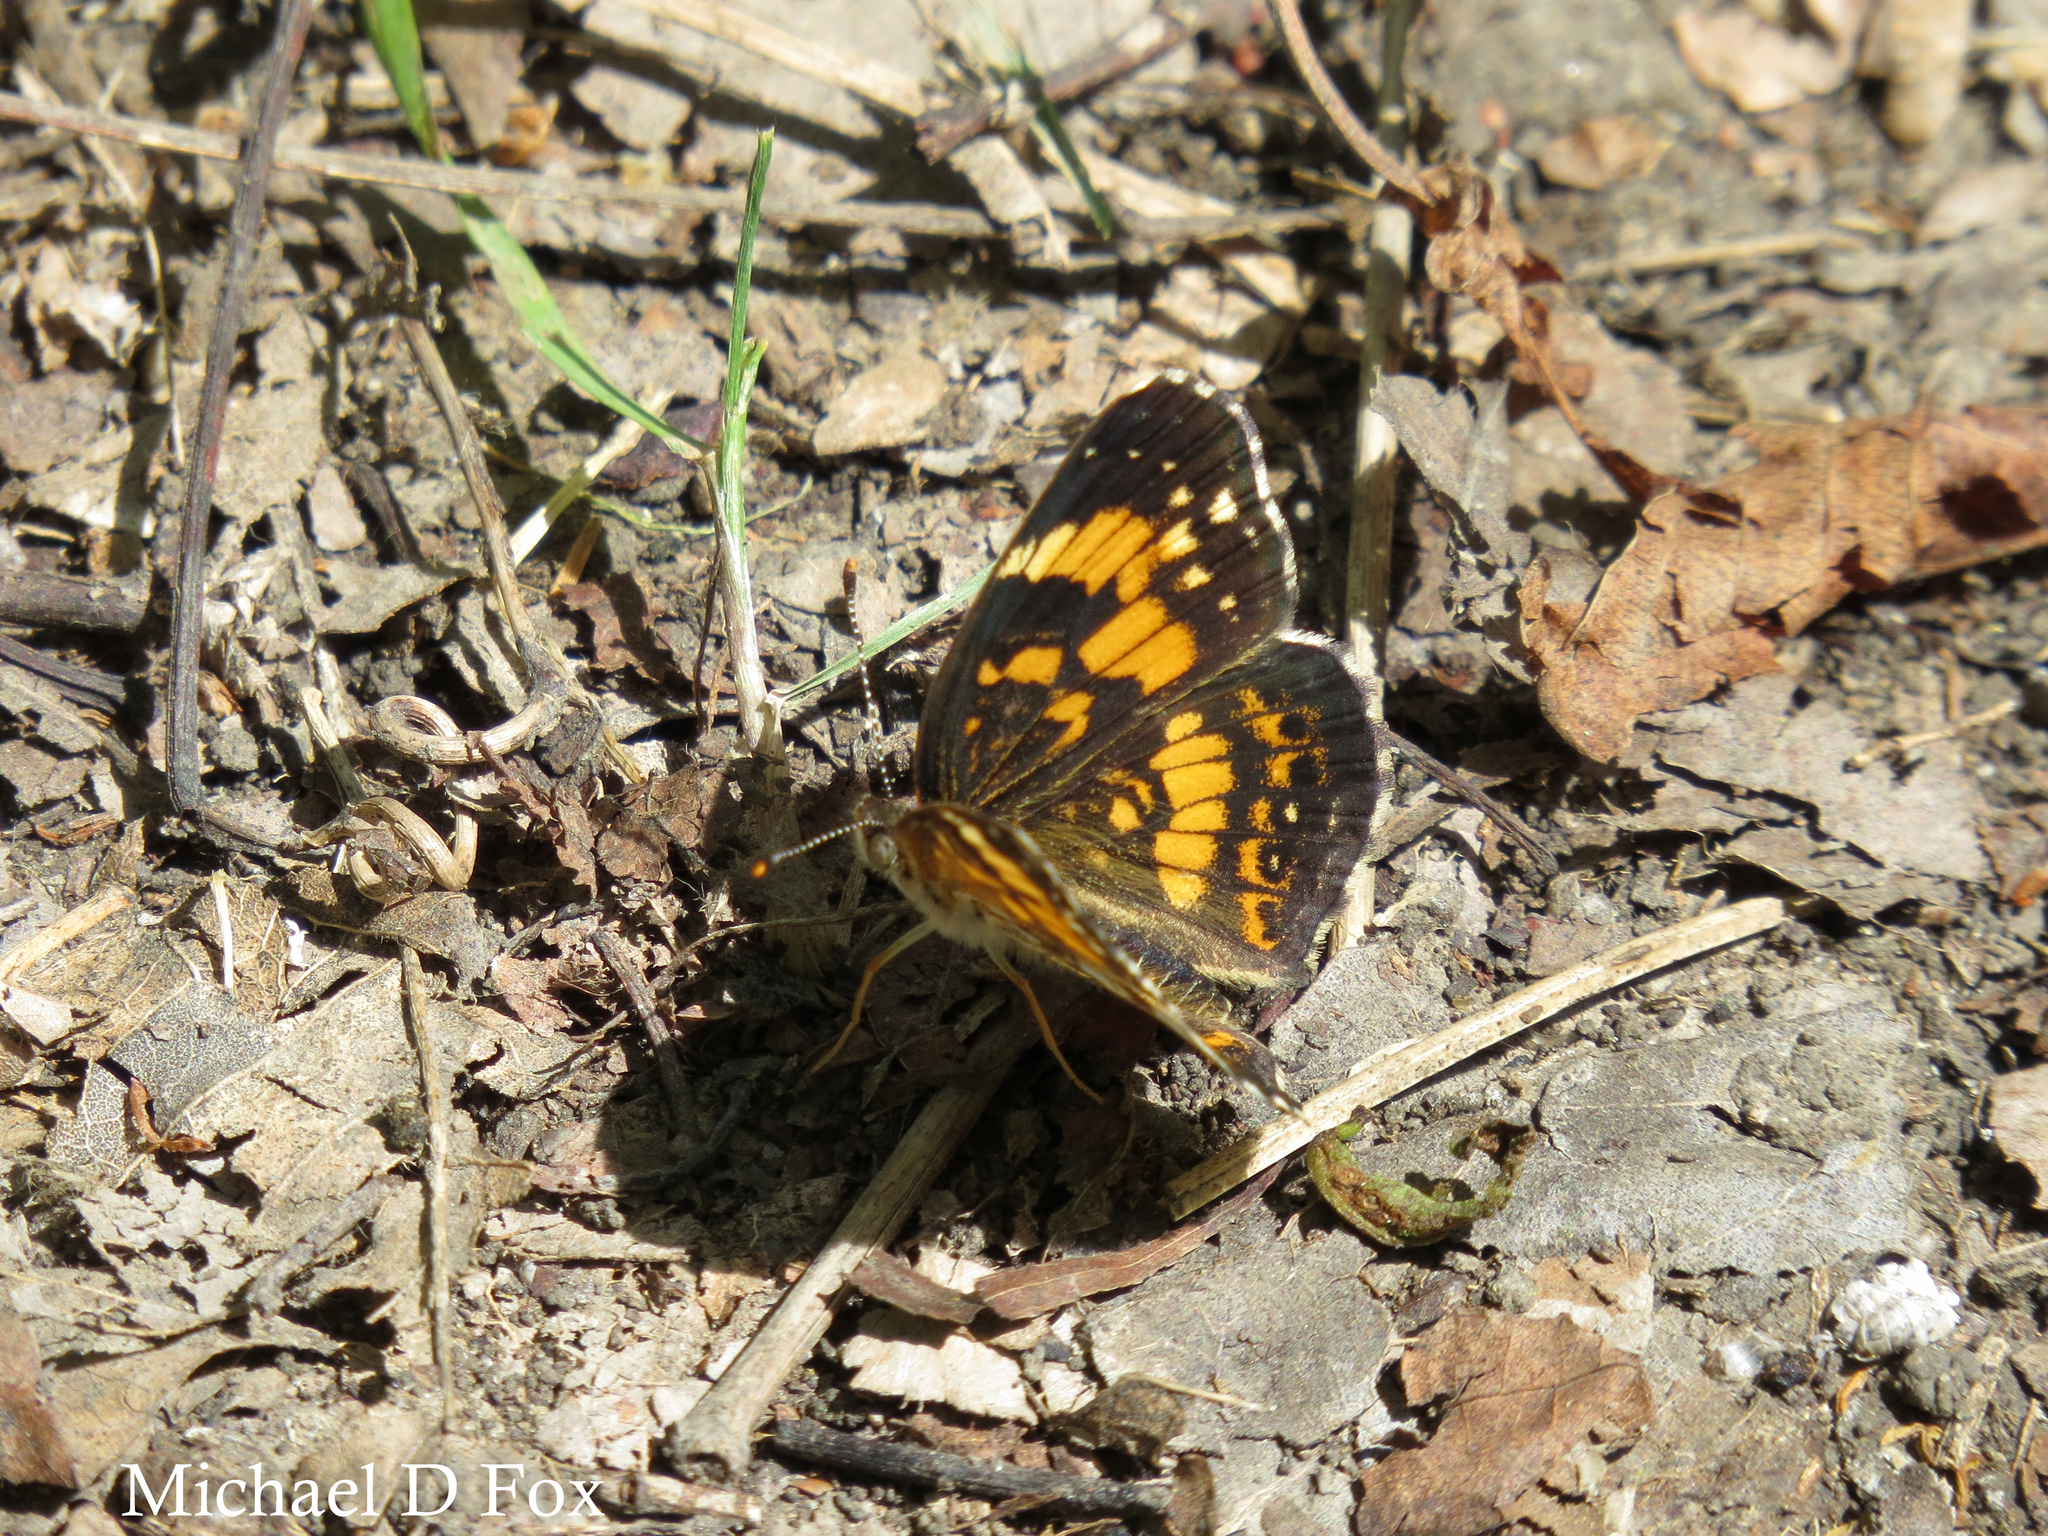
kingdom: Animalia
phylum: Arthropoda
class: Insecta
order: Lepidoptera
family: Nymphalidae
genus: Chlosyne
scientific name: Chlosyne nycteis
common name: Silvery checkerspot
